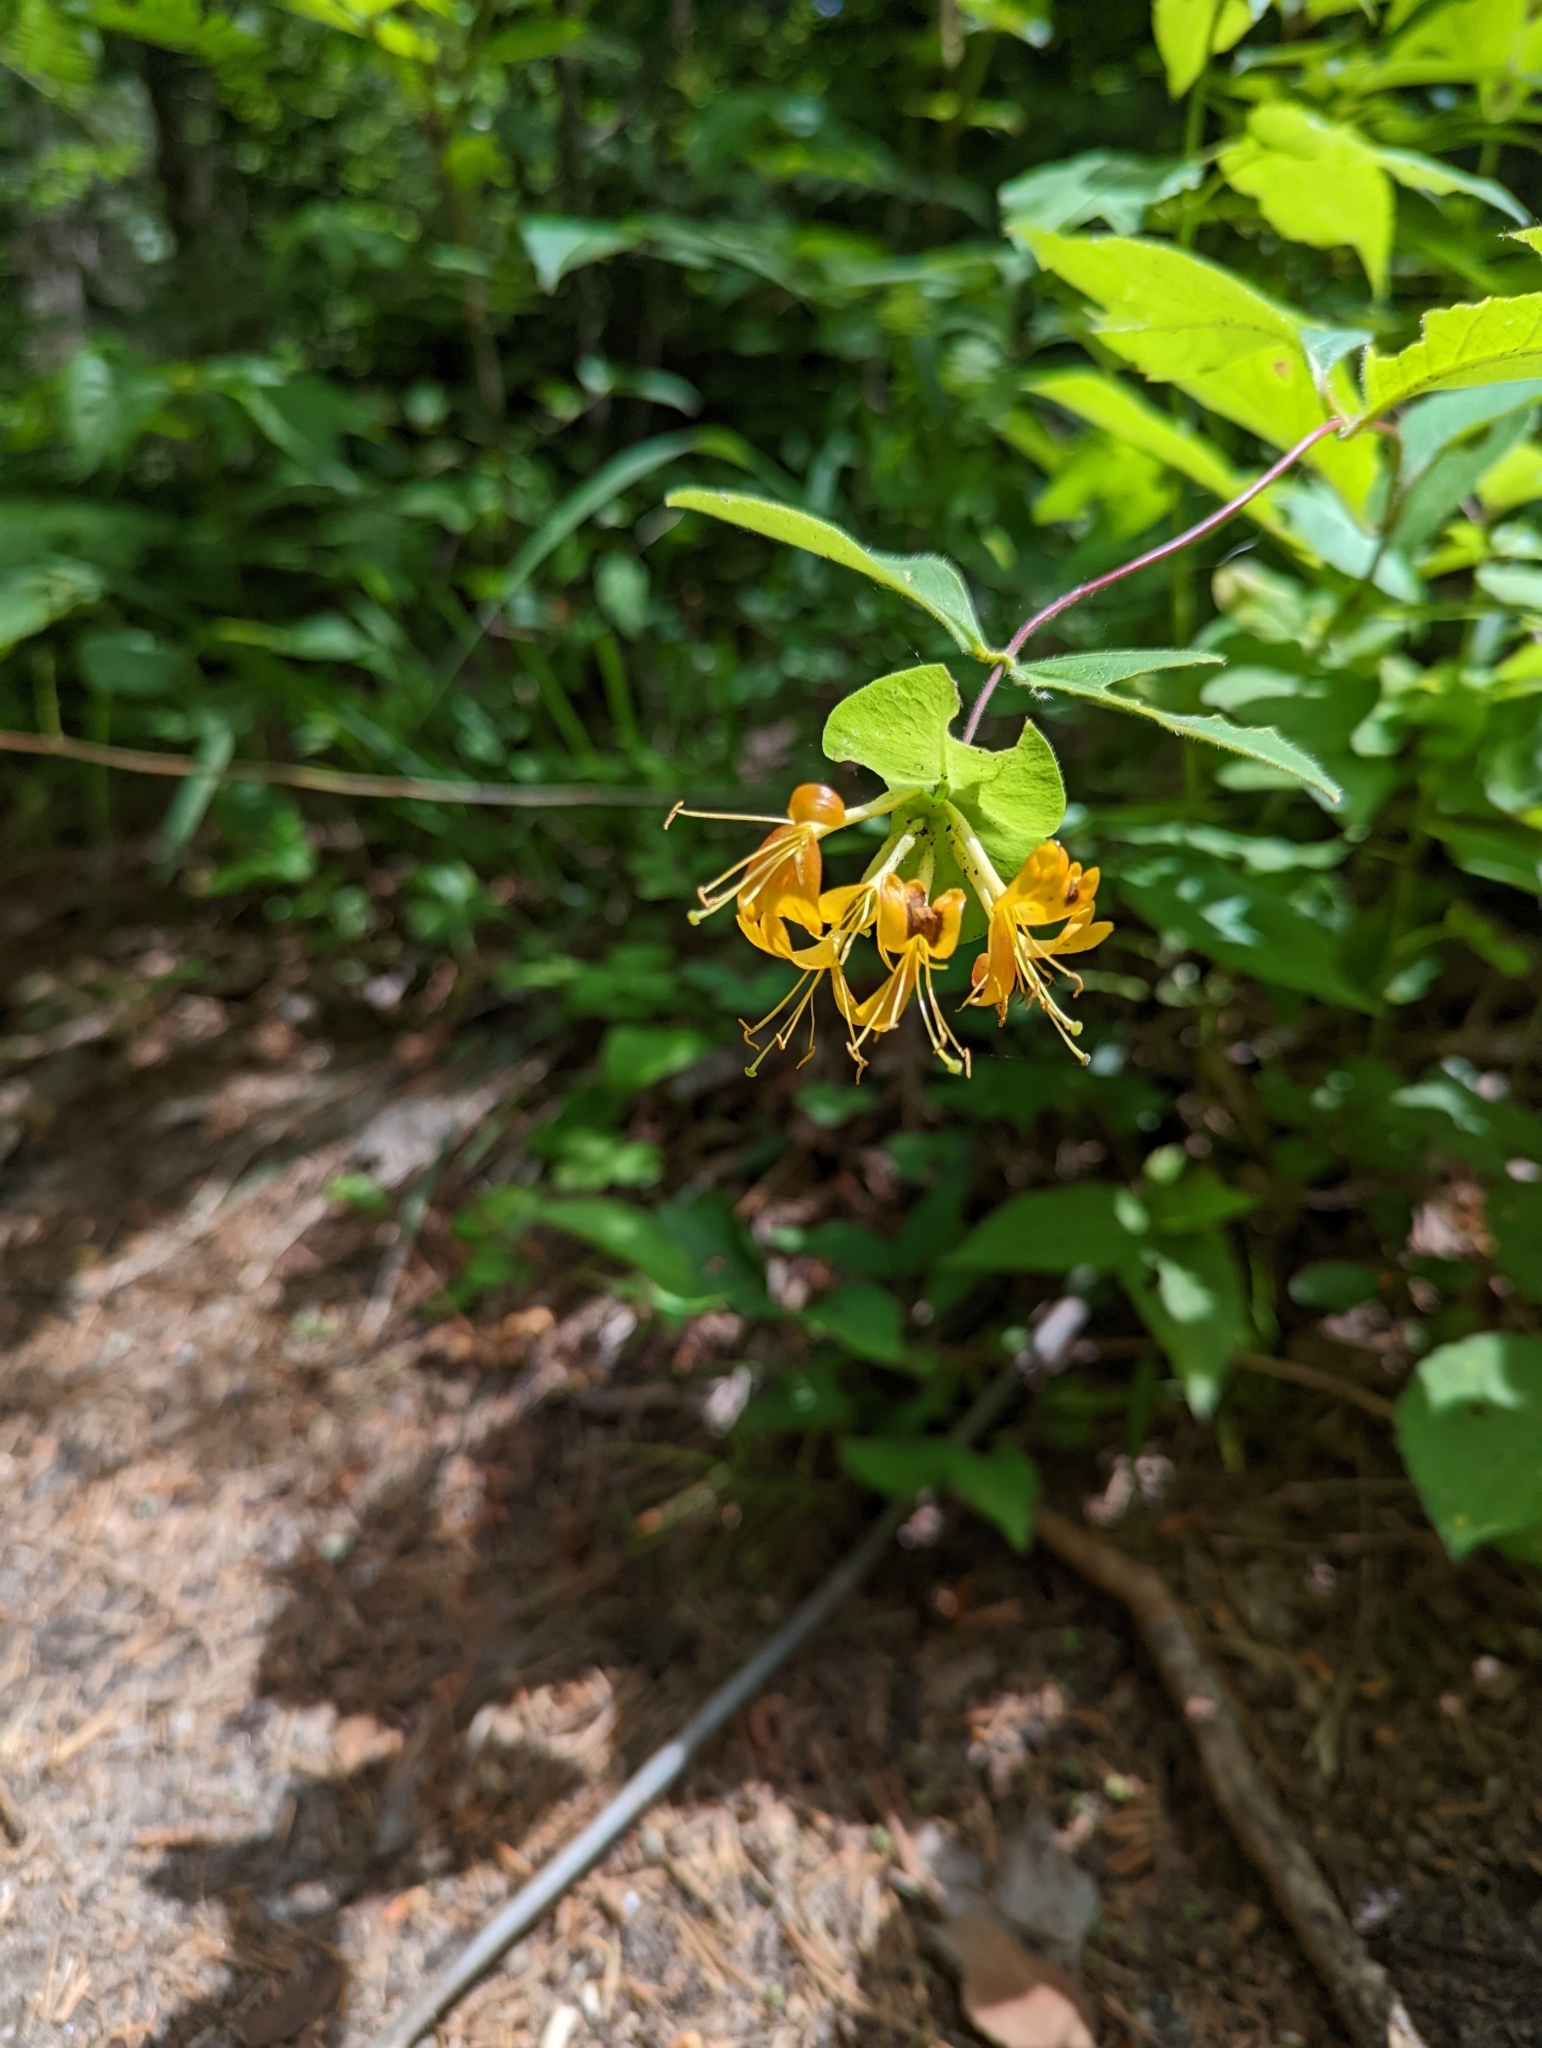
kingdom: Plantae
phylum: Tracheophyta
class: Magnoliopsida
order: Dipsacales
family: Caprifoliaceae
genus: Lonicera
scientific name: Lonicera hirsuta
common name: Hairy honeysuckle
